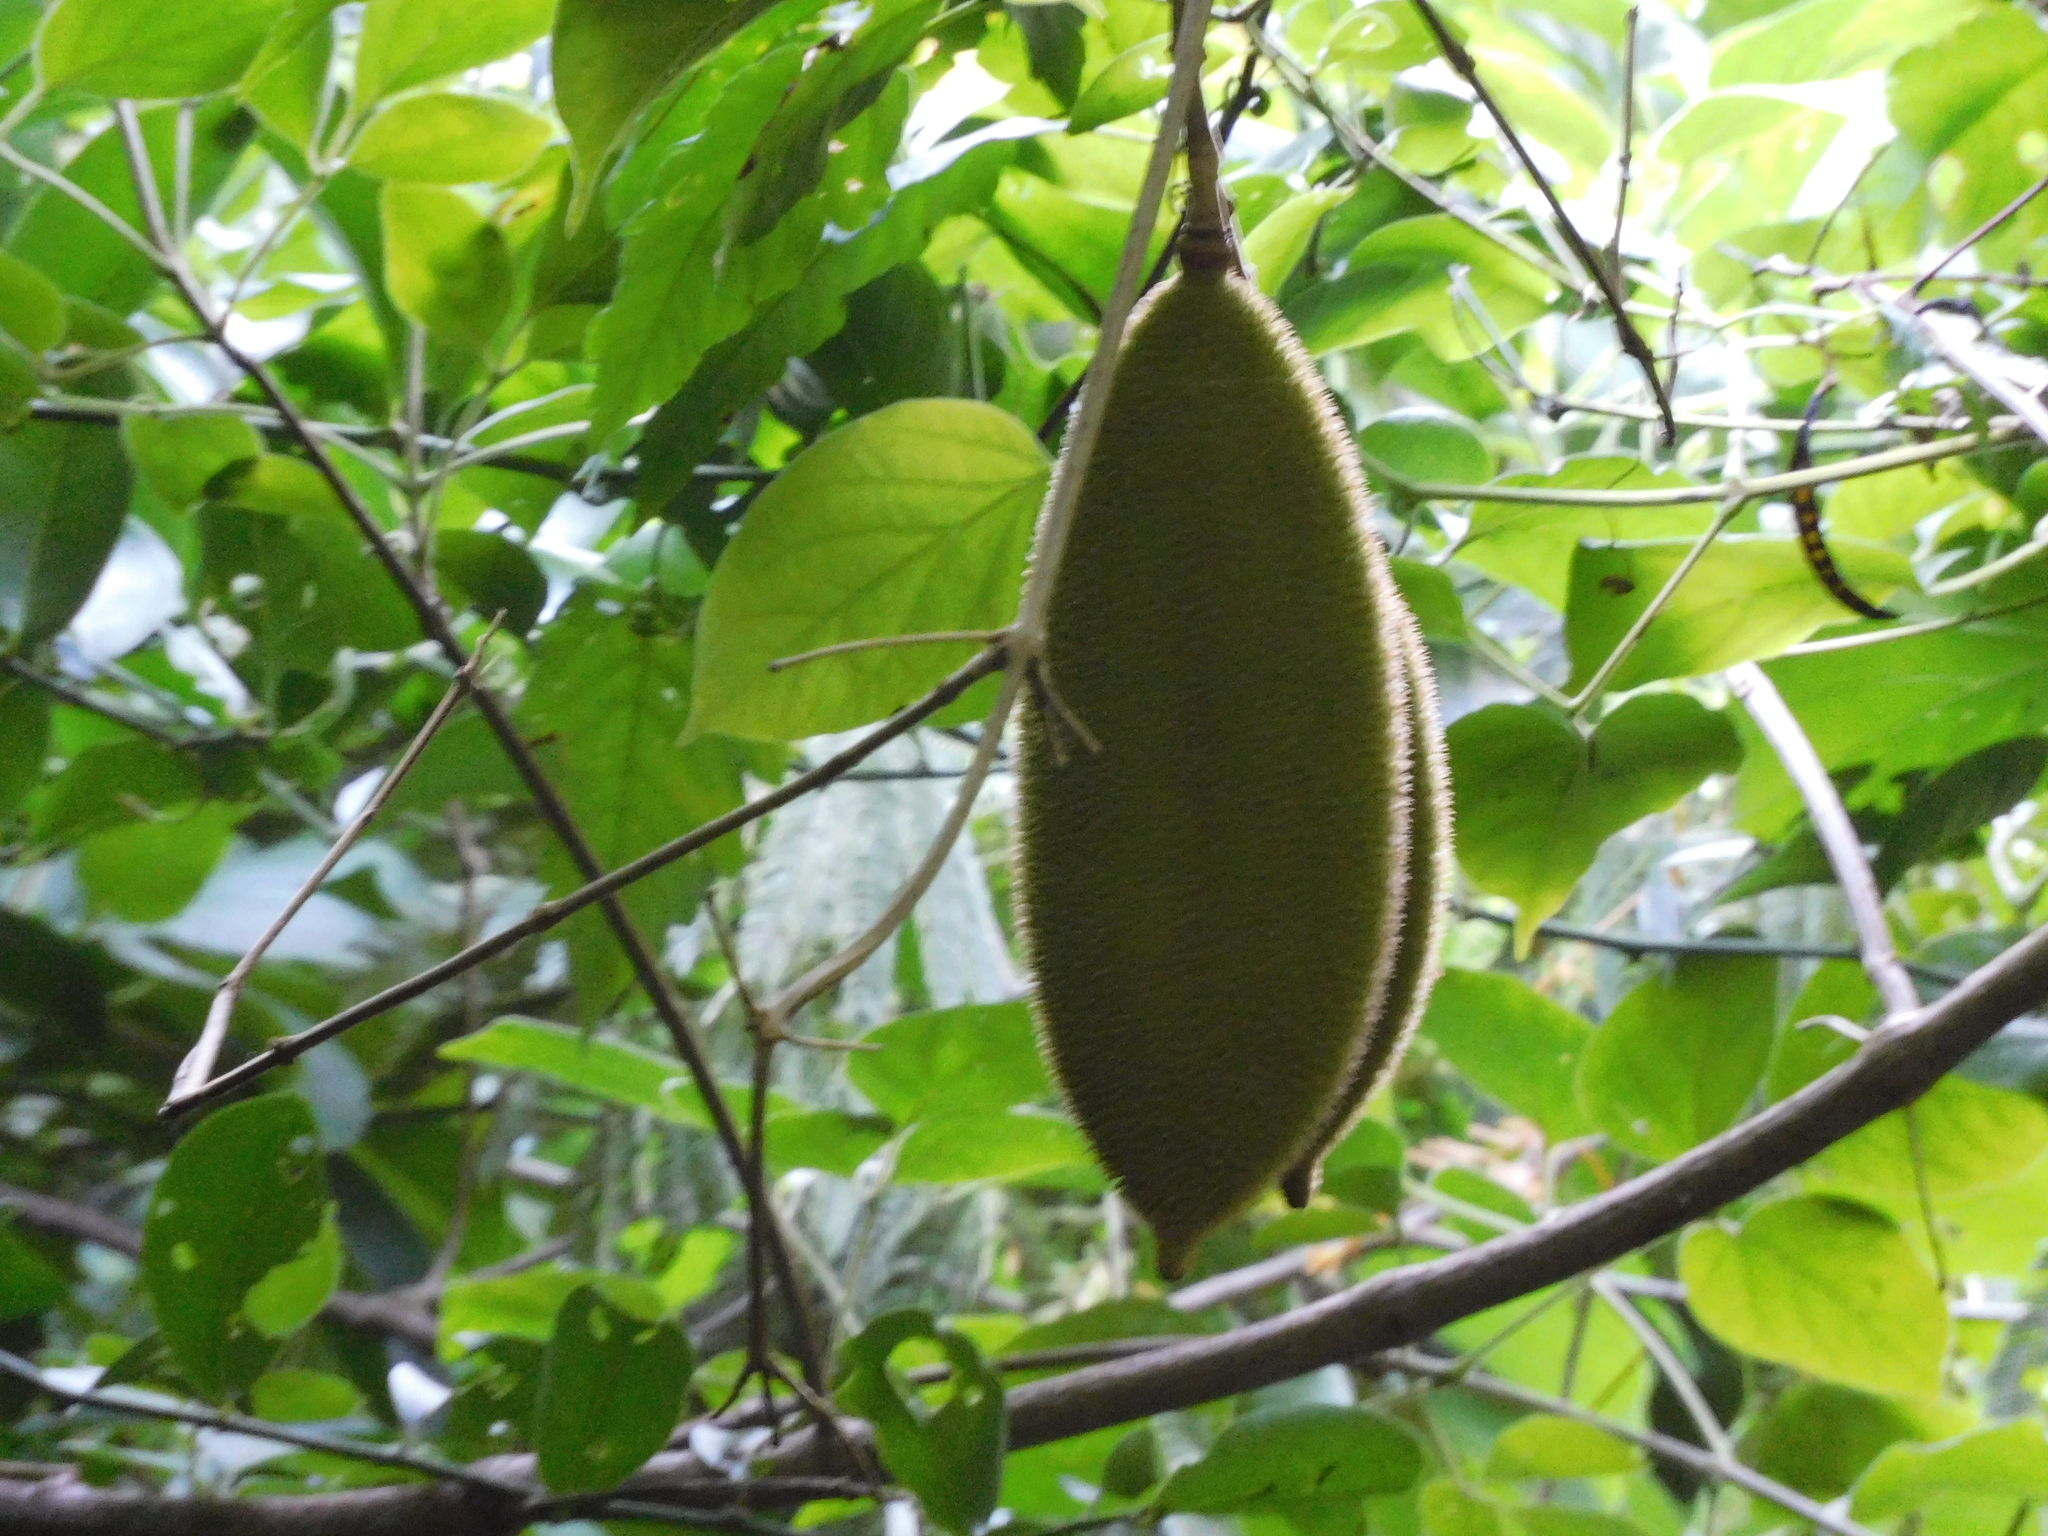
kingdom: Plantae
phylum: Tracheophyta
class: Magnoliopsida
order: Lamiales
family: Bignoniaceae
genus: Amphilophium
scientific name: Amphilophium crucigerum
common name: Monkey comb
